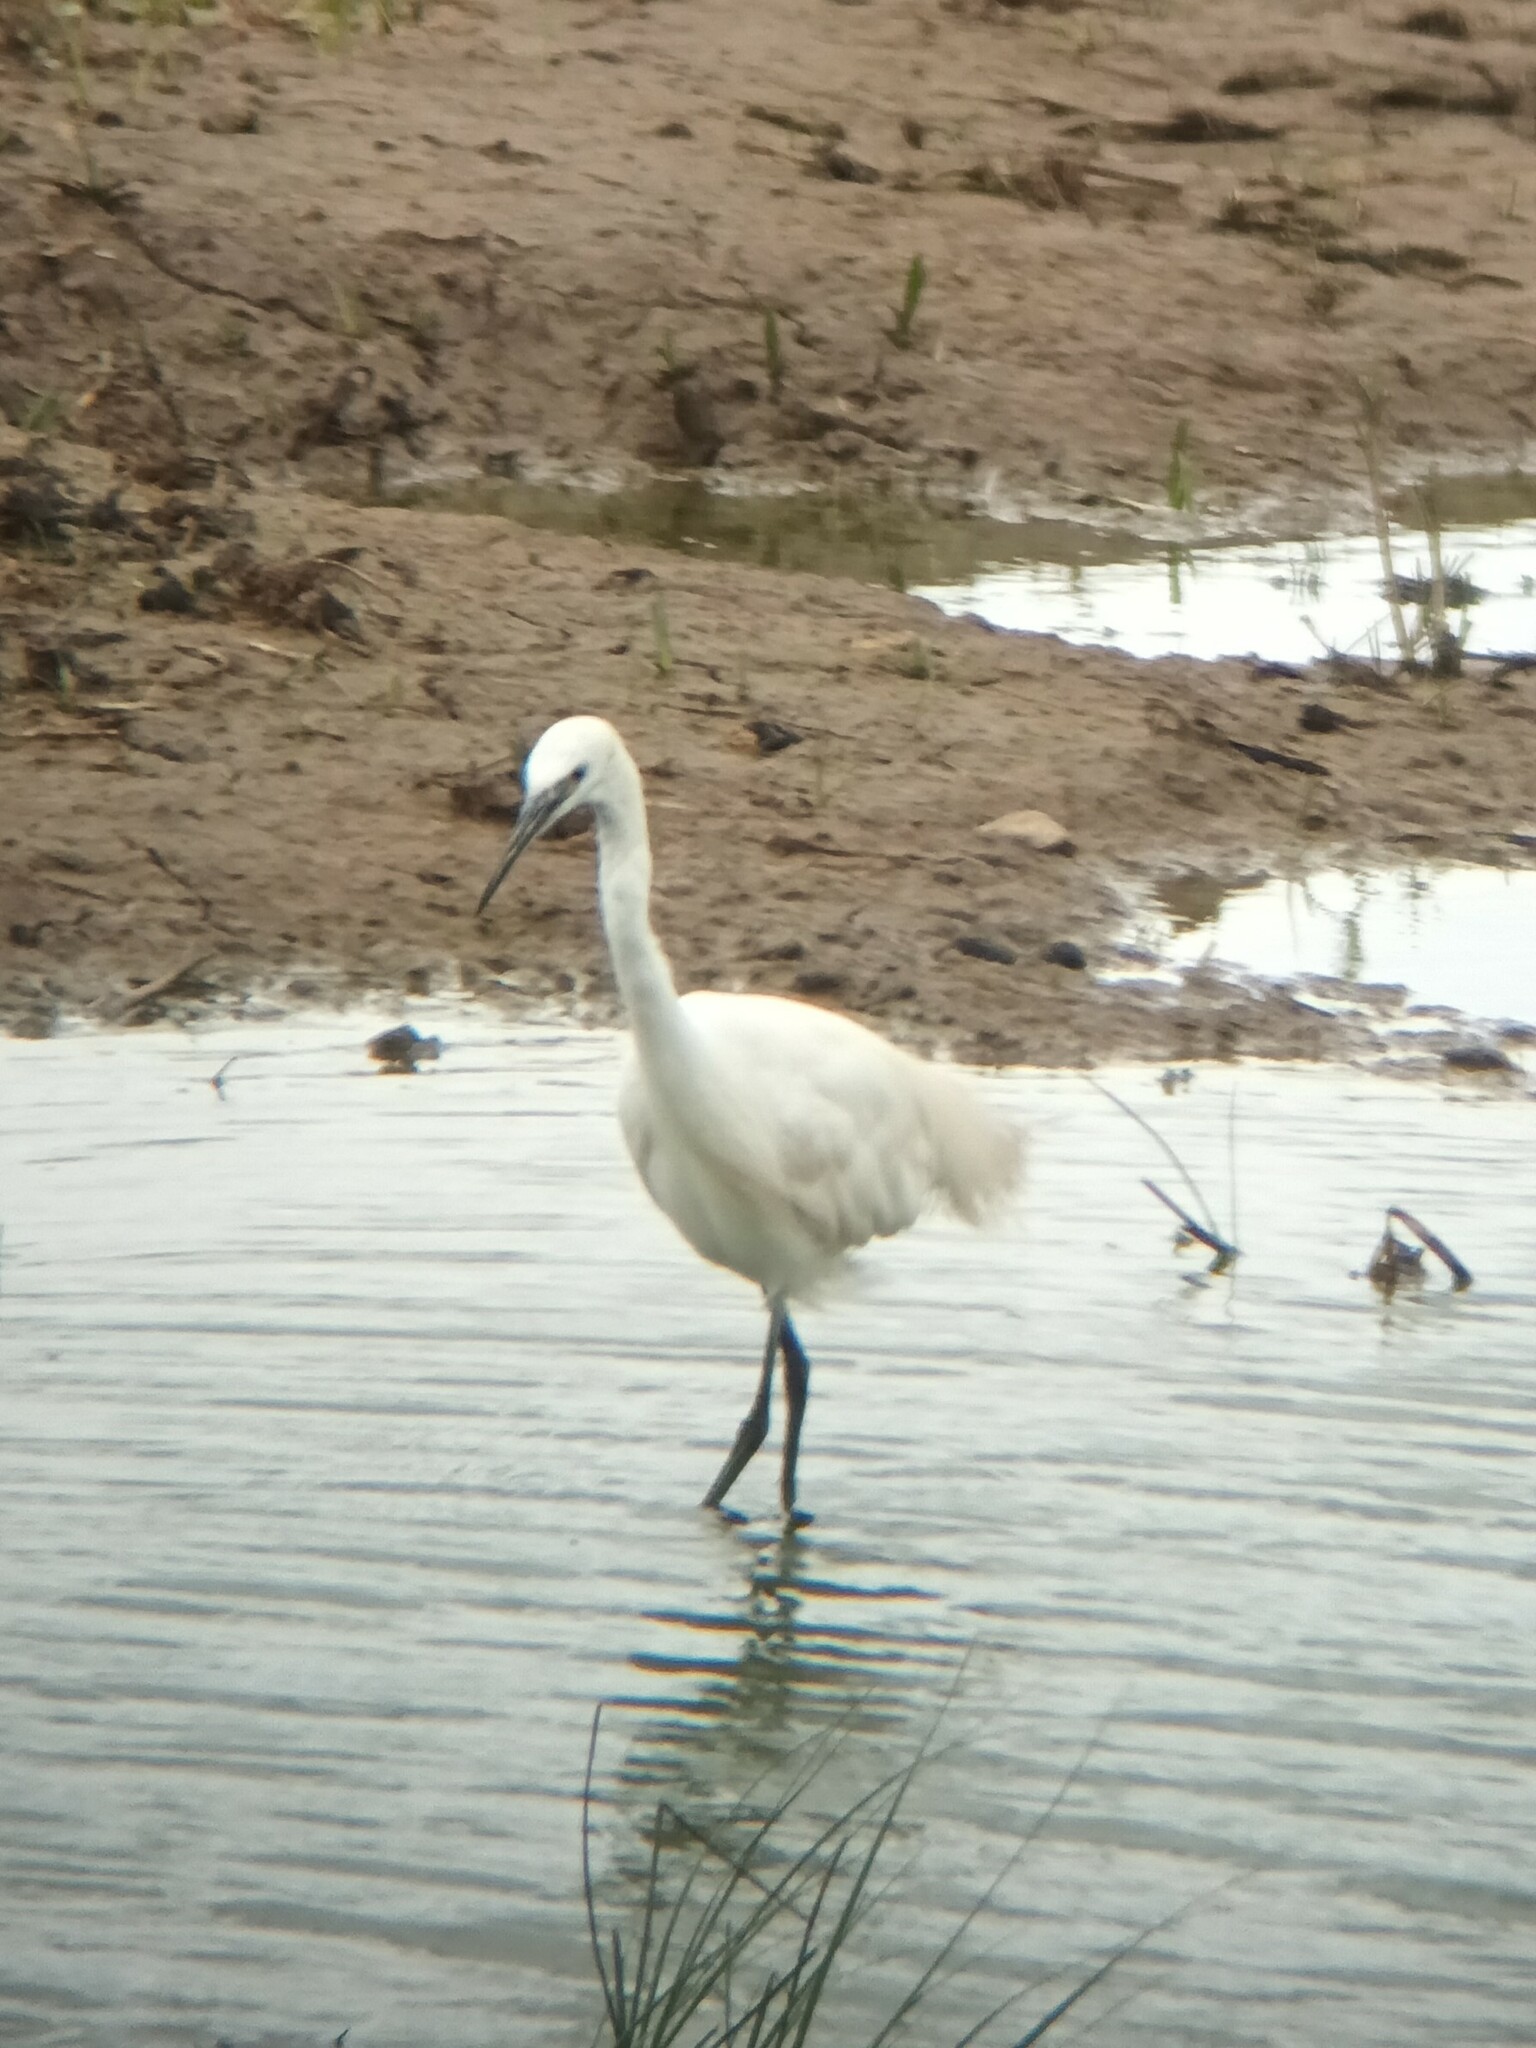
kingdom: Animalia
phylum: Chordata
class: Aves
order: Pelecaniformes
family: Ardeidae
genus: Egretta
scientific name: Egretta garzetta
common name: Little egret
